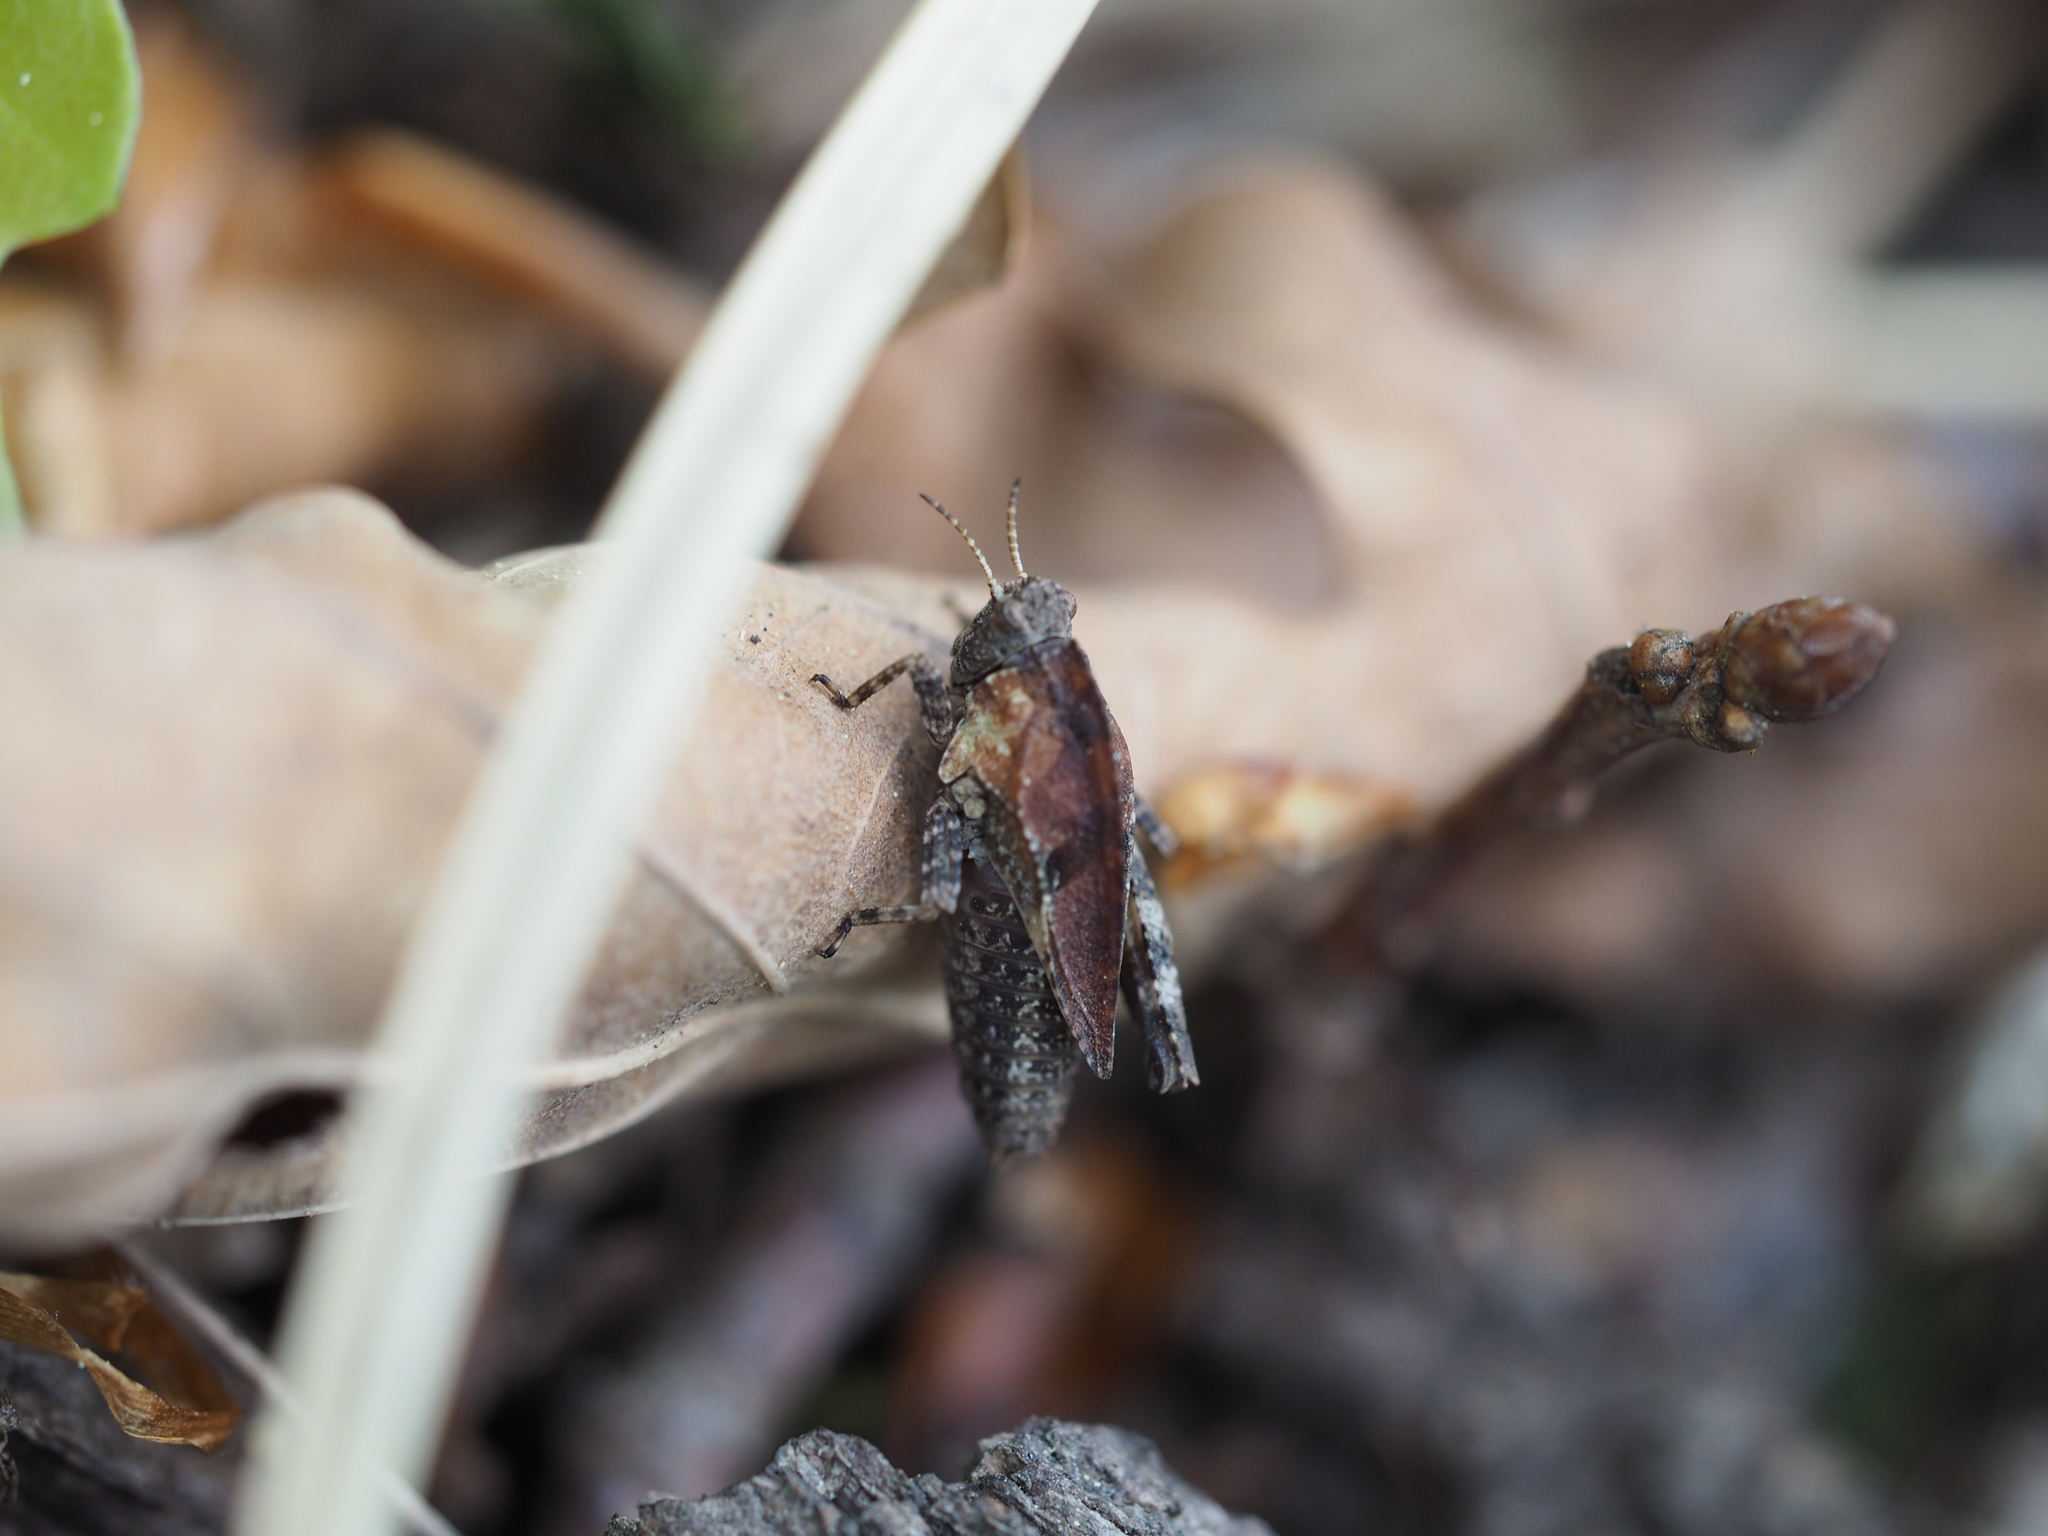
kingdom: Animalia
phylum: Arthropoda
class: Insecta
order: Orthoptera
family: Tetrigidae
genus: Tetrix
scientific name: Tetrix bipunctata
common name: Two-spotted groundhopper
